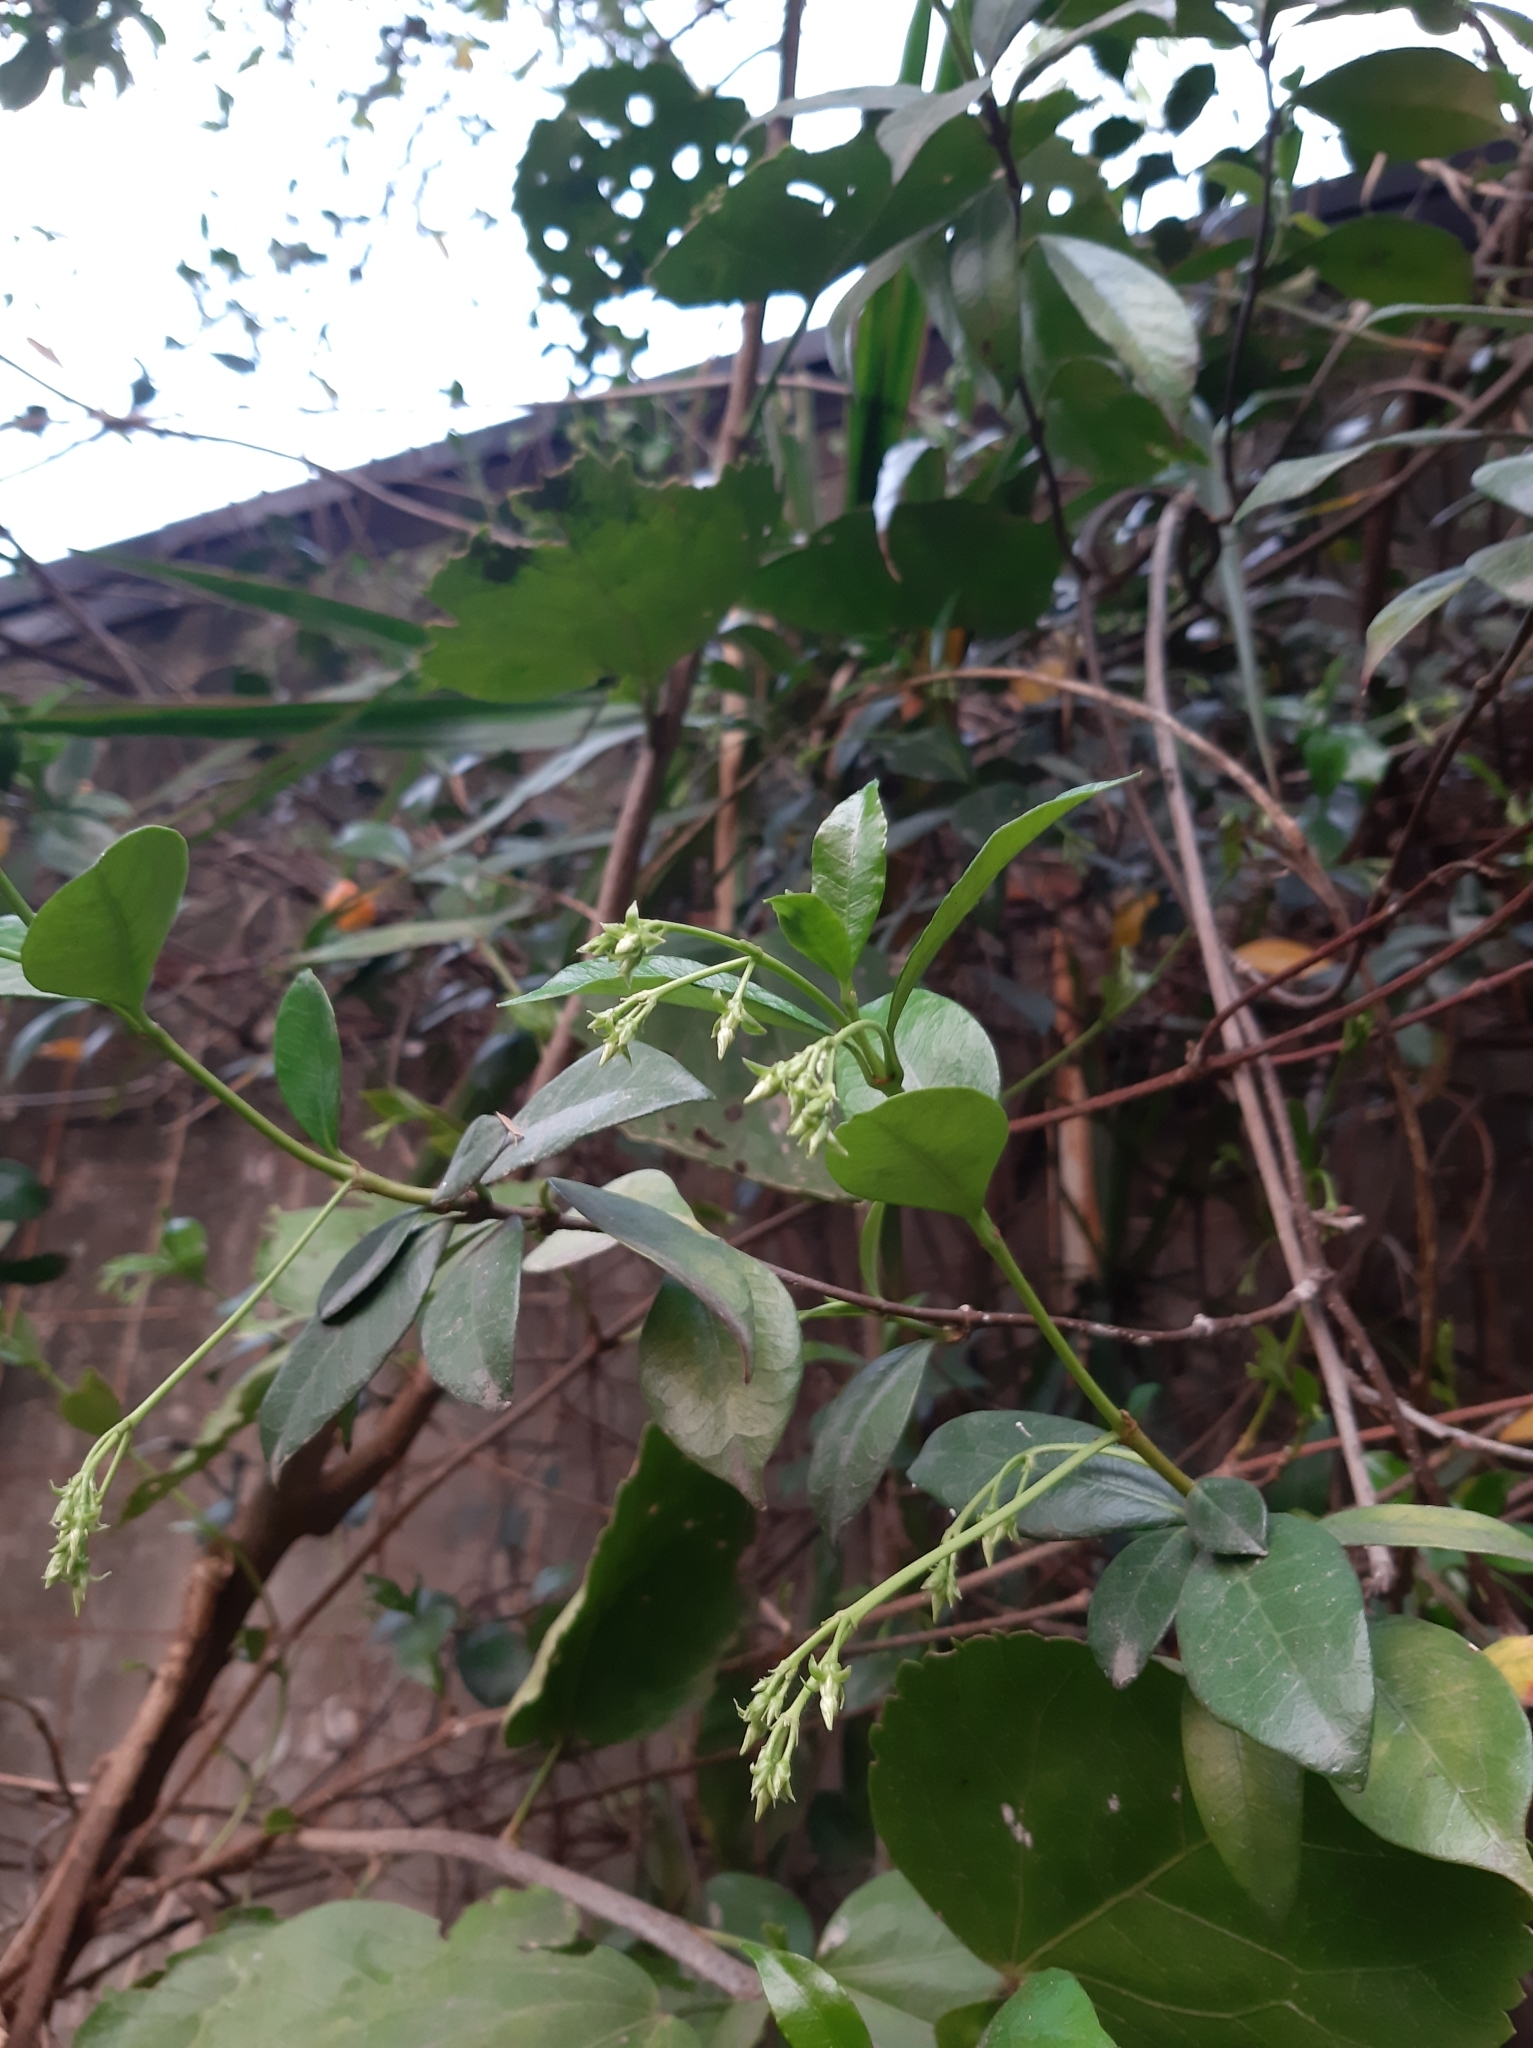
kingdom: Plantae
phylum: Tracheophyta
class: Magnoliopsida
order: Gentianales
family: Apocynaceae
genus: Trachelospermum
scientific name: Trachelospermum jasminoides
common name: Confederate jasmine
